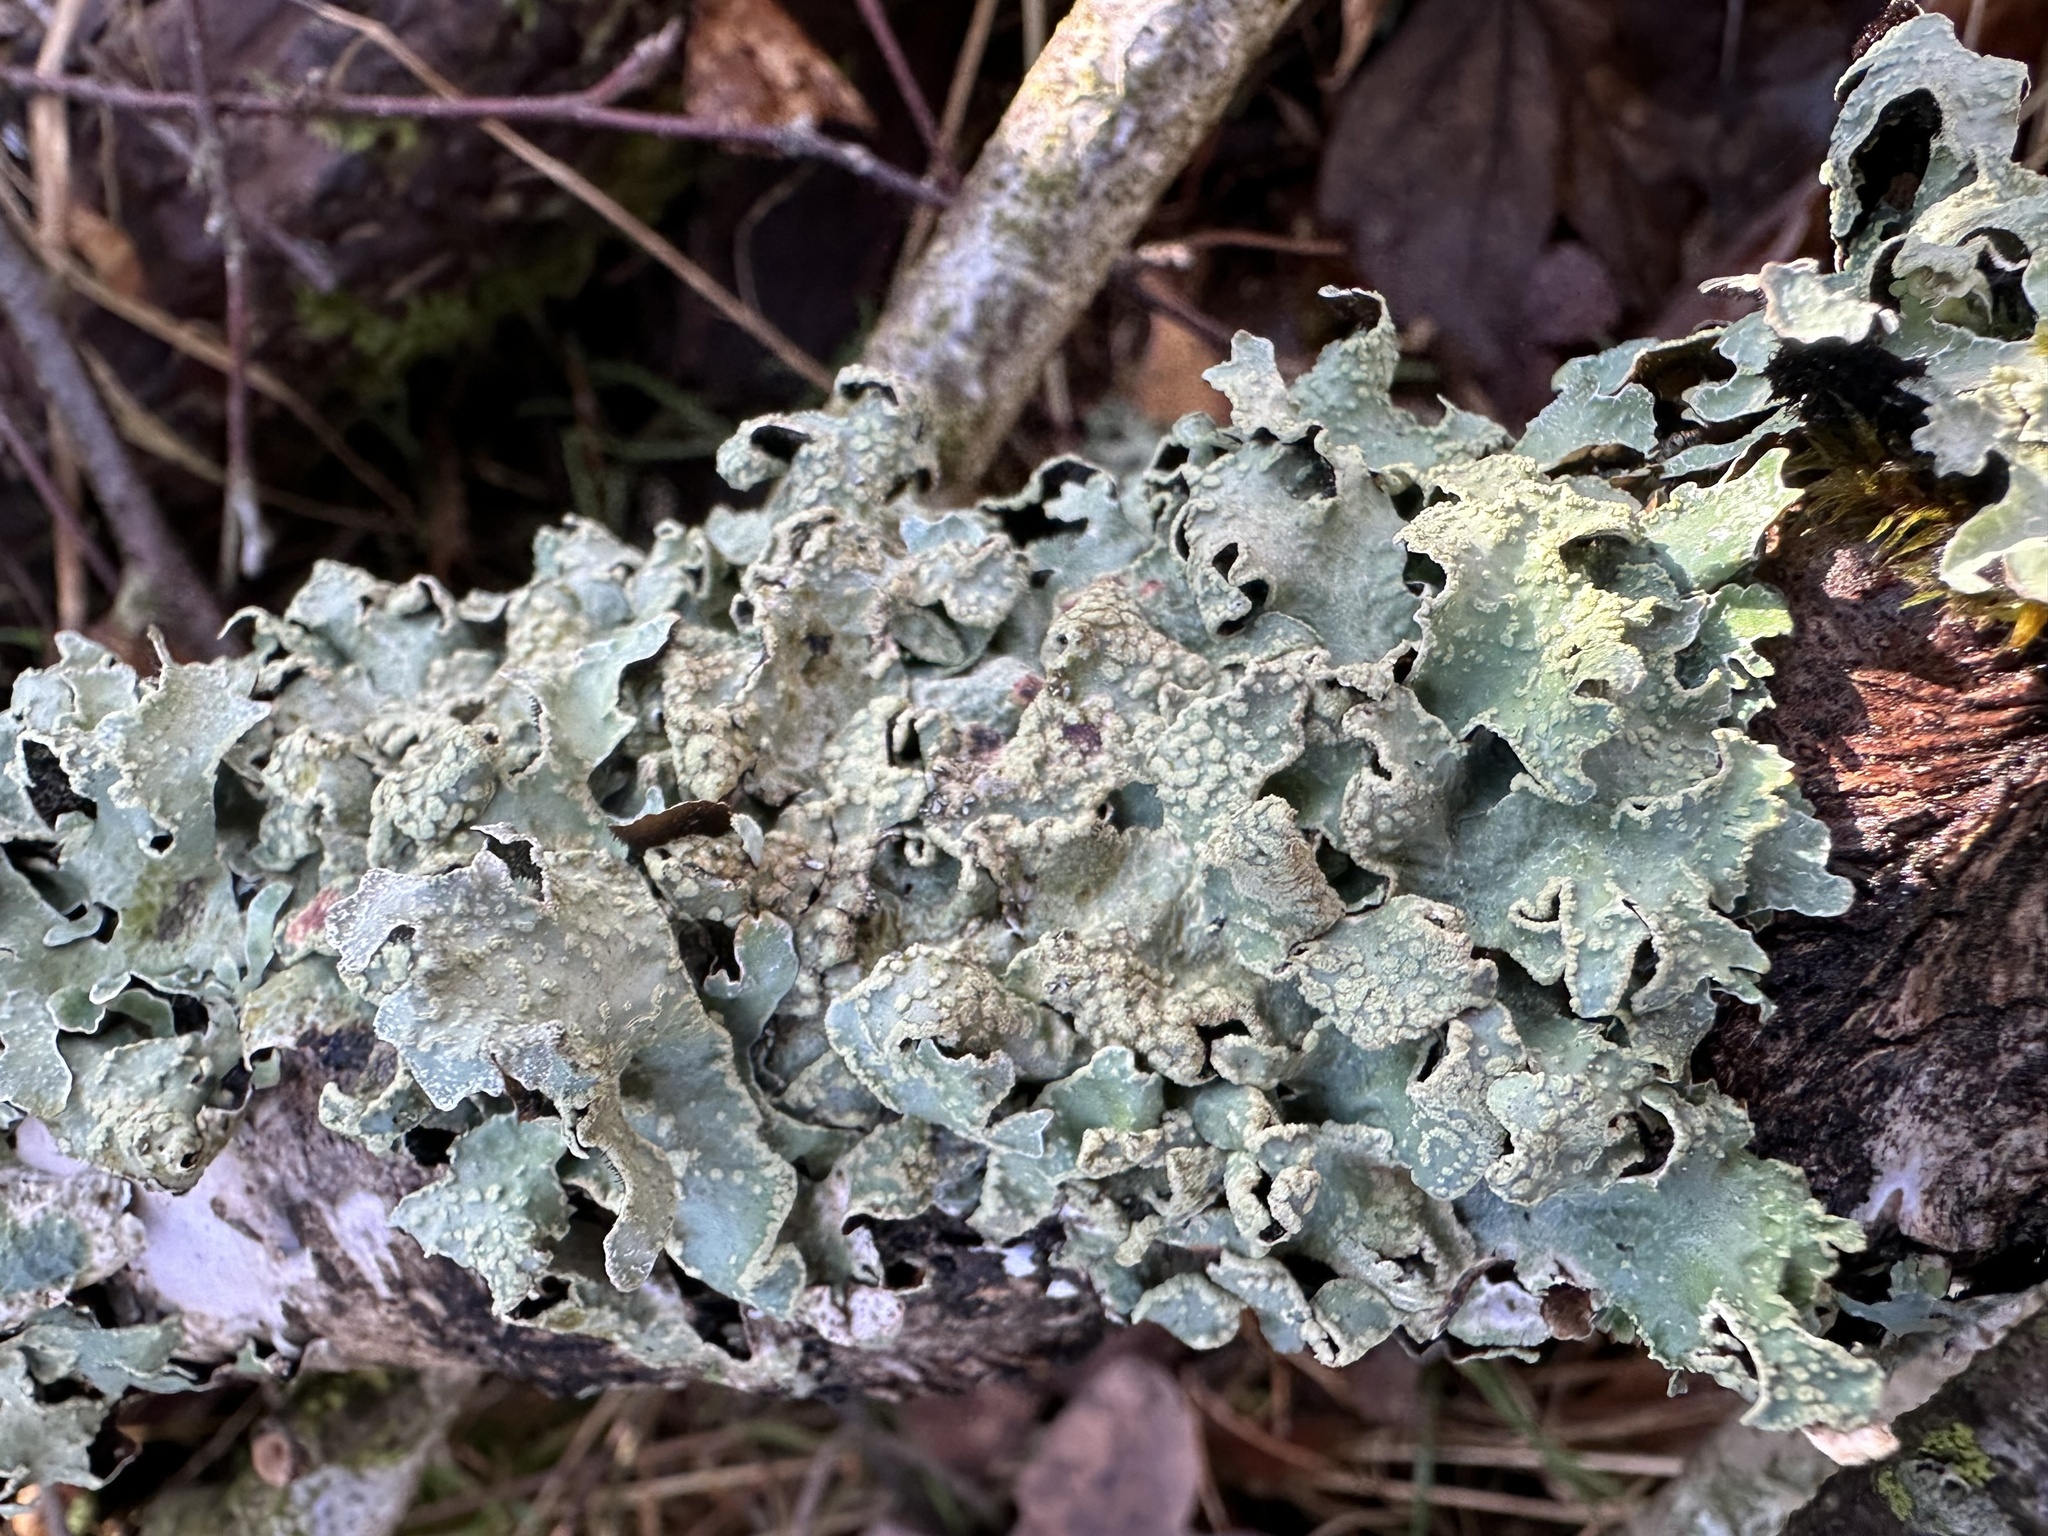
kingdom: Fungi
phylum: Ascomycota
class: Lecanoromycetes
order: Lecanorales
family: Parmeliaceae
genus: Parmelia
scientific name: Parmelia sulcata
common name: Netted shield lichen
